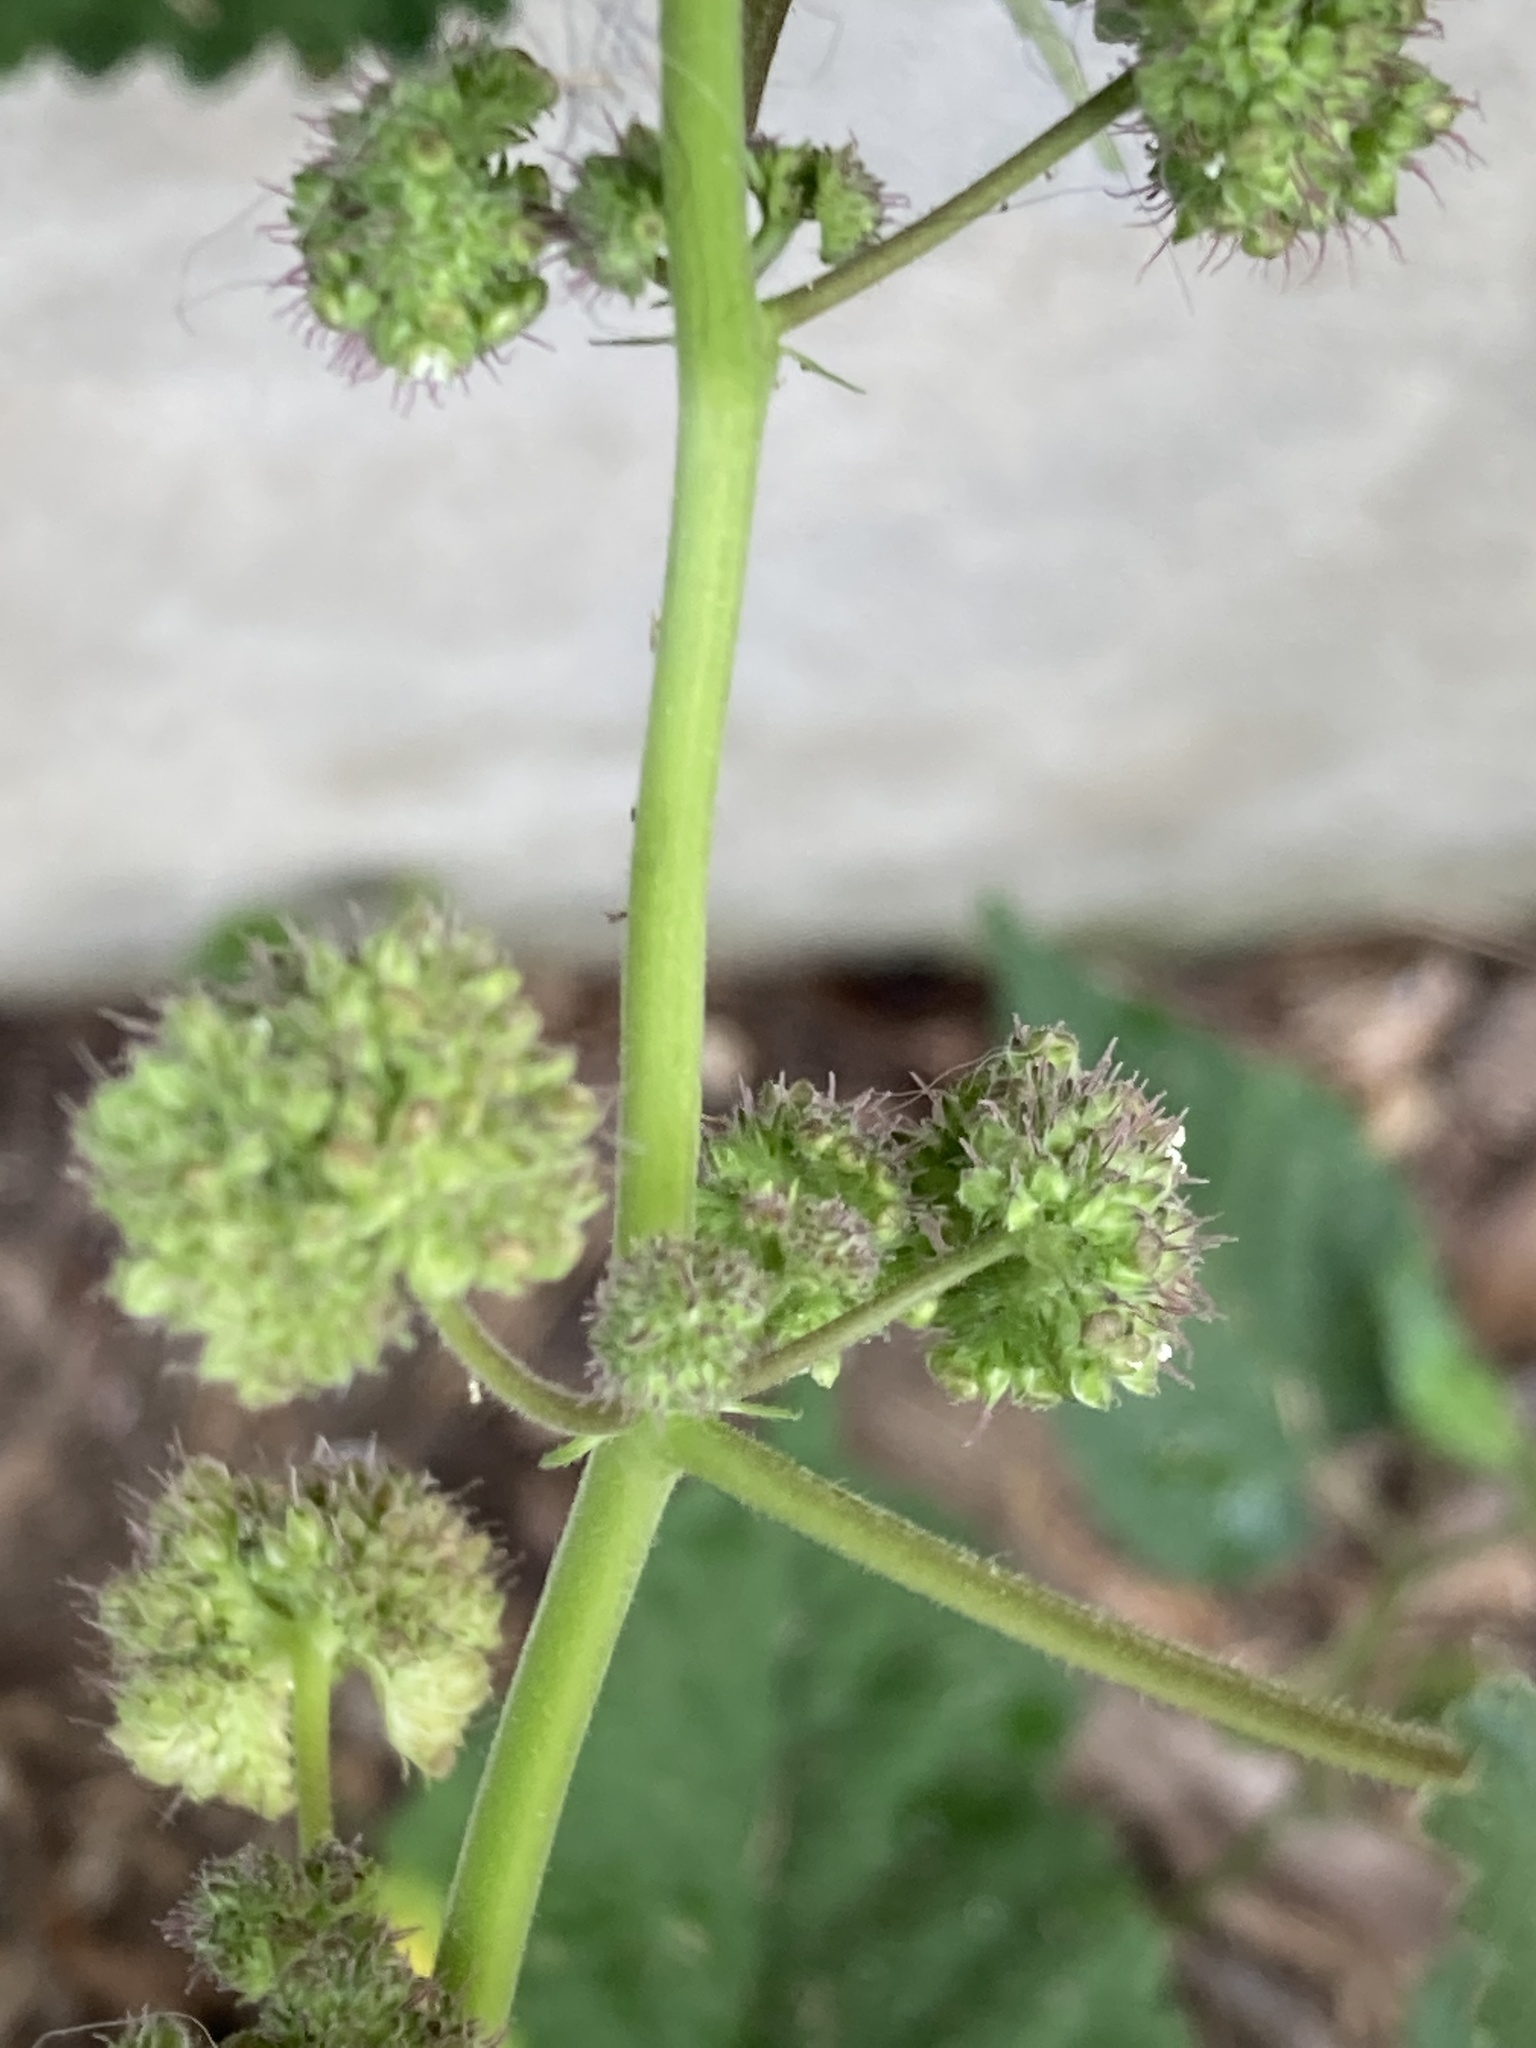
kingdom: Plantae
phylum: Tracheophyta
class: Magnoliopsida
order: Rosales
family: Moraceae
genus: Fatoua
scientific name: Fatoua villosa
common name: Hairy crabweed
